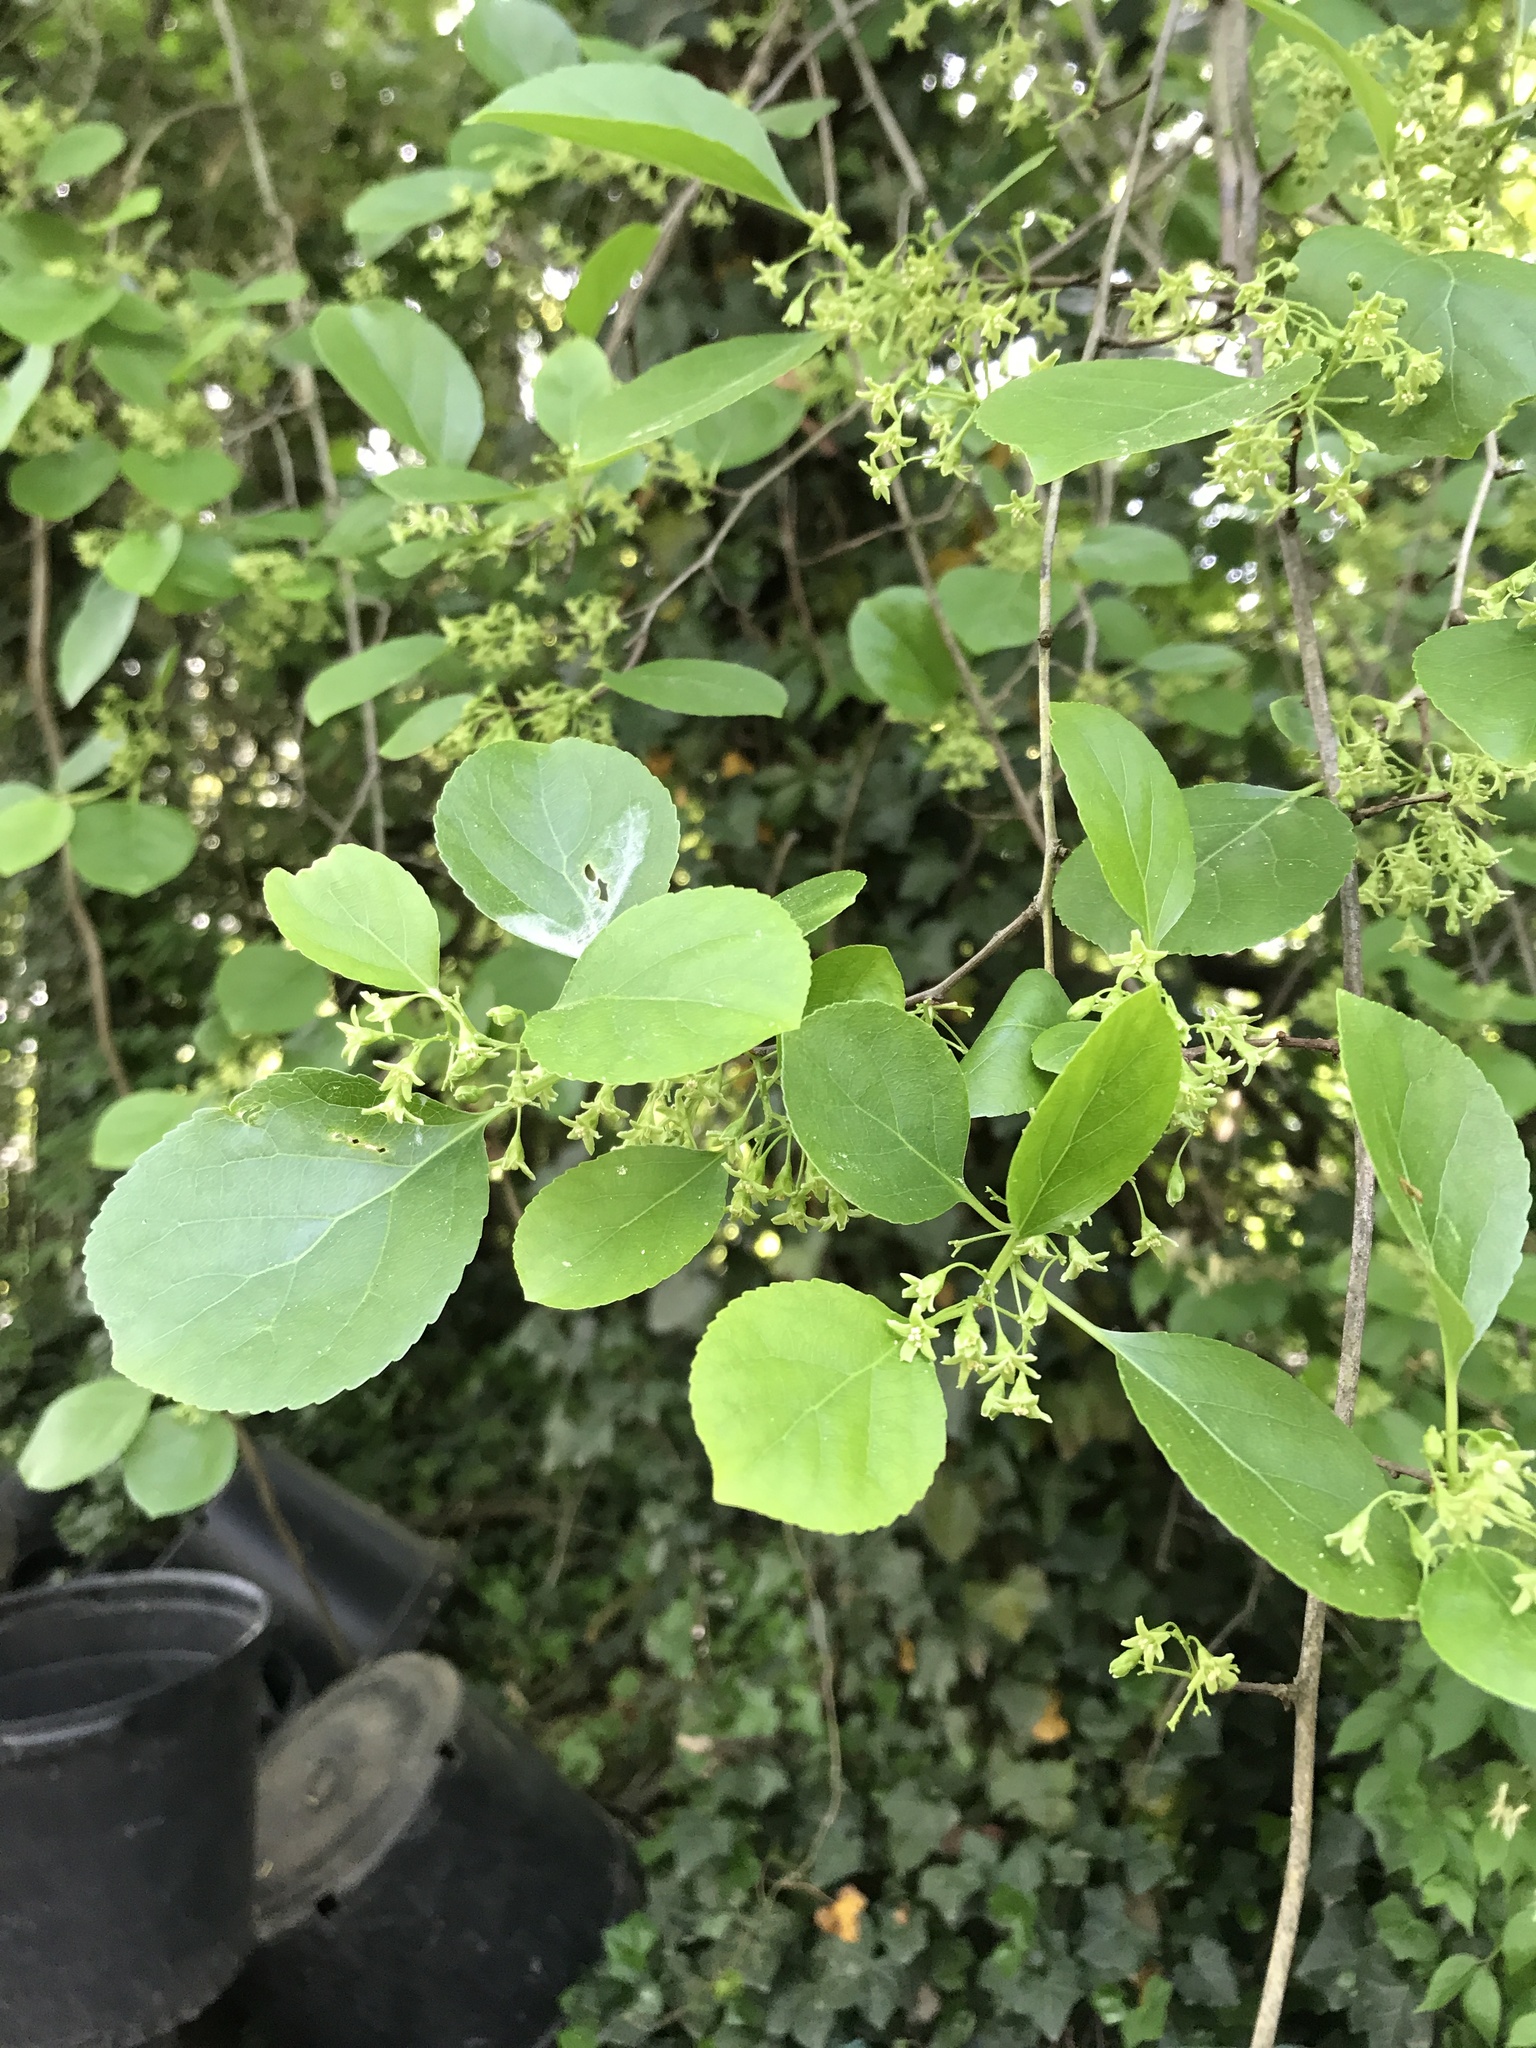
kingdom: Plantae
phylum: Tracheophyta
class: Magnoliopsida
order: Celastrales
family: Celastraceae
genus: Celastrus
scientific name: Celastrus orbiculatus
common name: Oriental bittersweet
